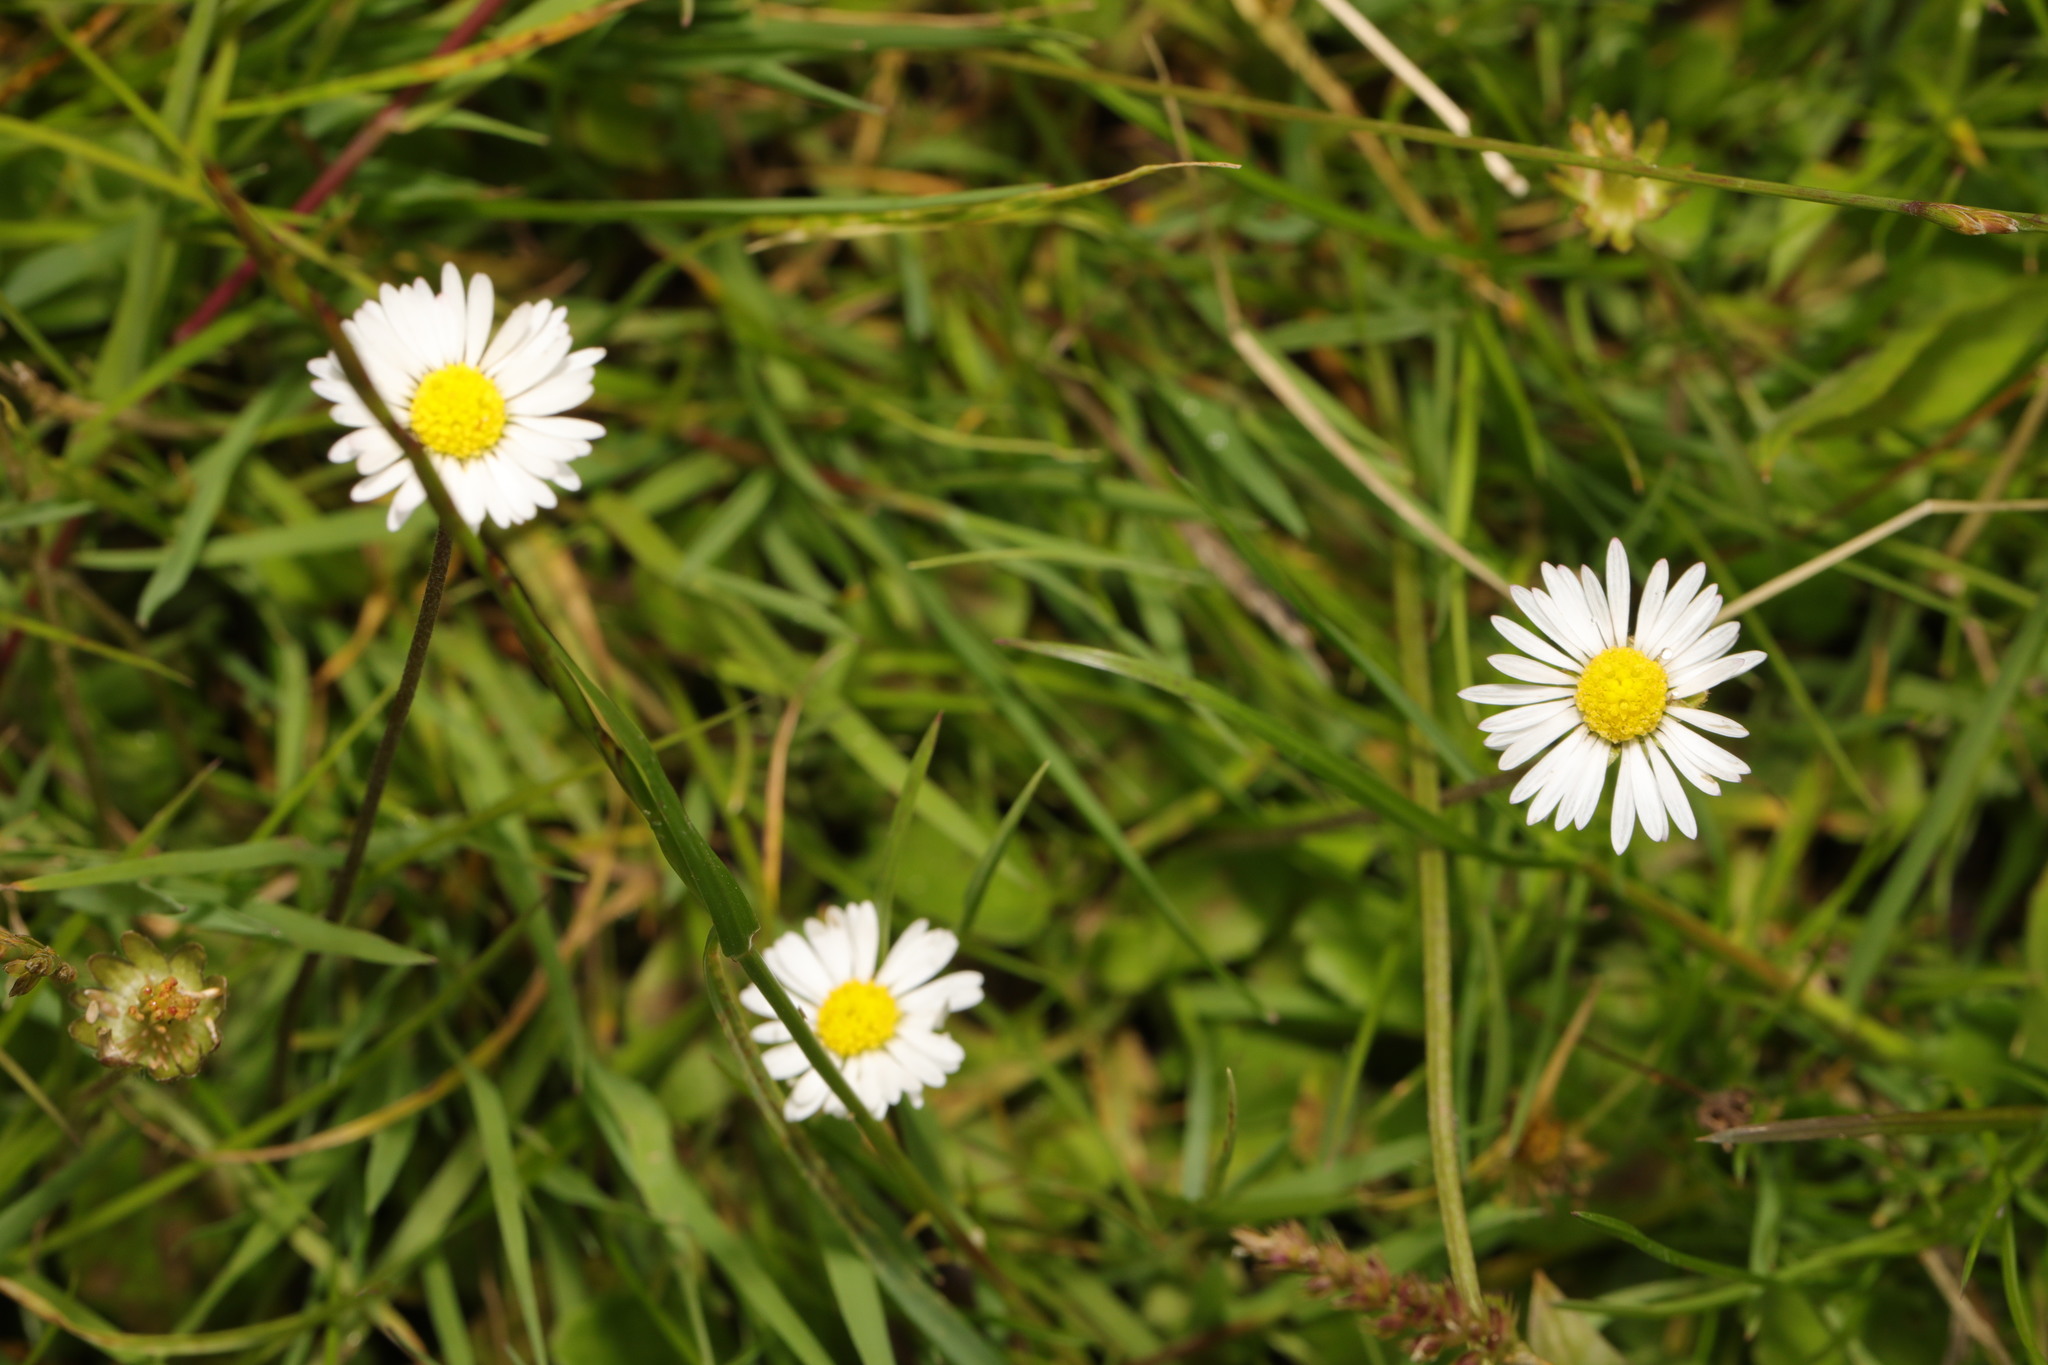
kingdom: Plantae
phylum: Tracheophyta
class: Magnoliopsida
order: Asterales
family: Asteraceae
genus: Bellis
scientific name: Bellis perennis
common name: Lawndaisy
